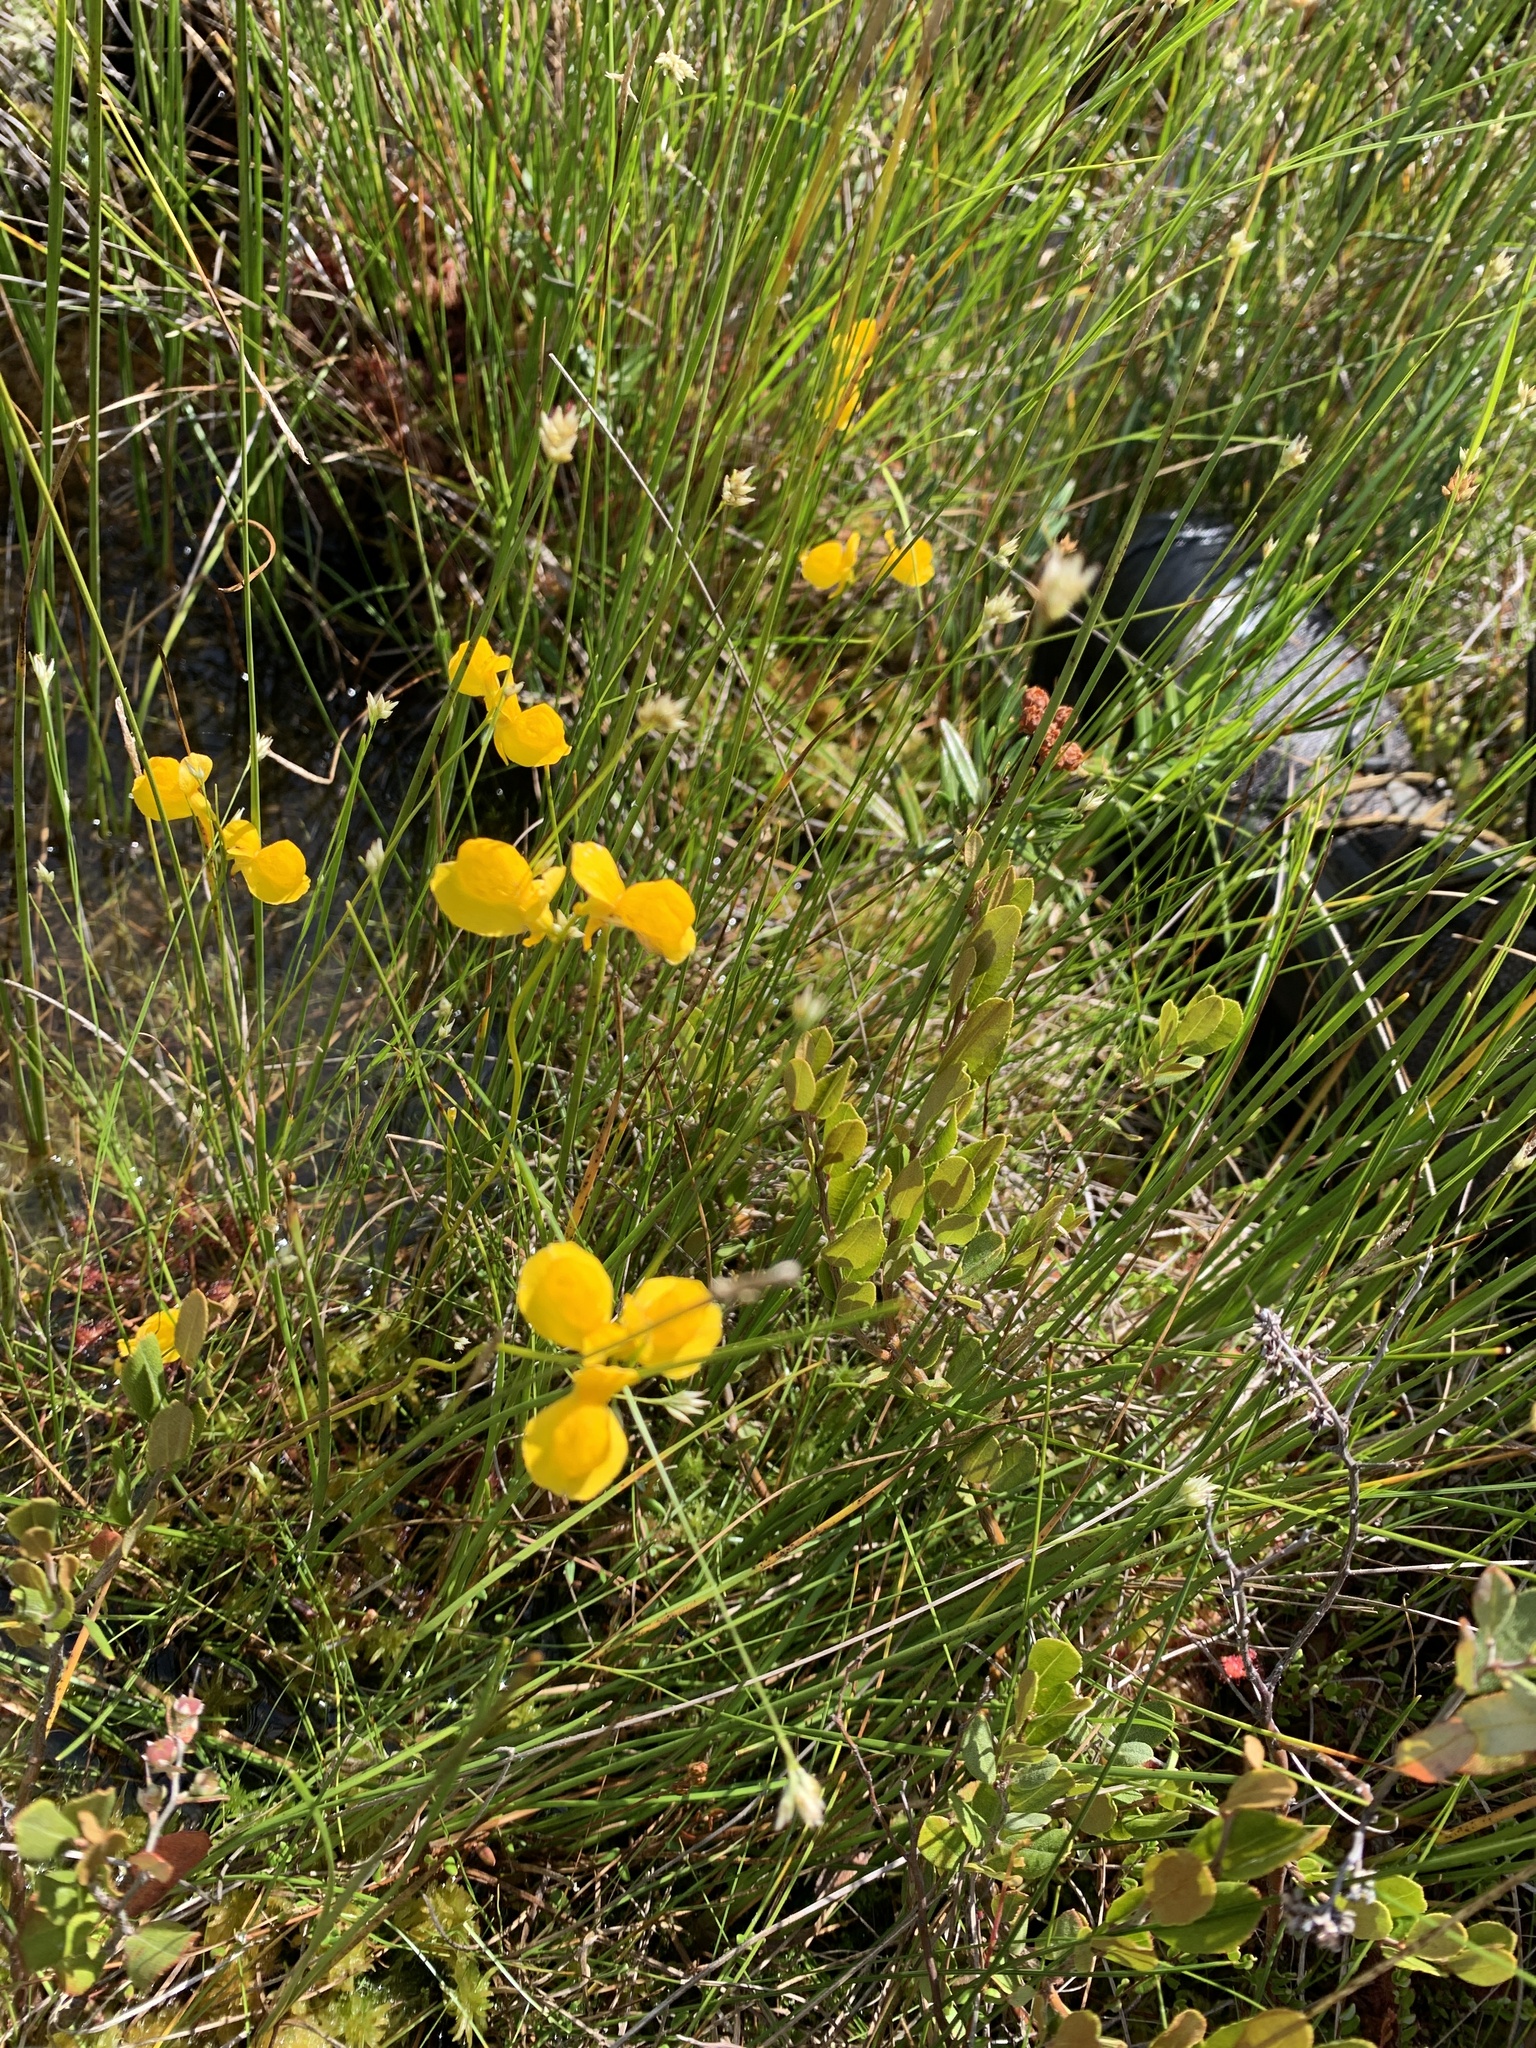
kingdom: Plantae
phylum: Tracheophyta
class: Magnoliopsida
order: Lamiales
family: Lentibulariaceae
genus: Utricularia
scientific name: Utricularia cornuta
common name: Horned bladderwort
